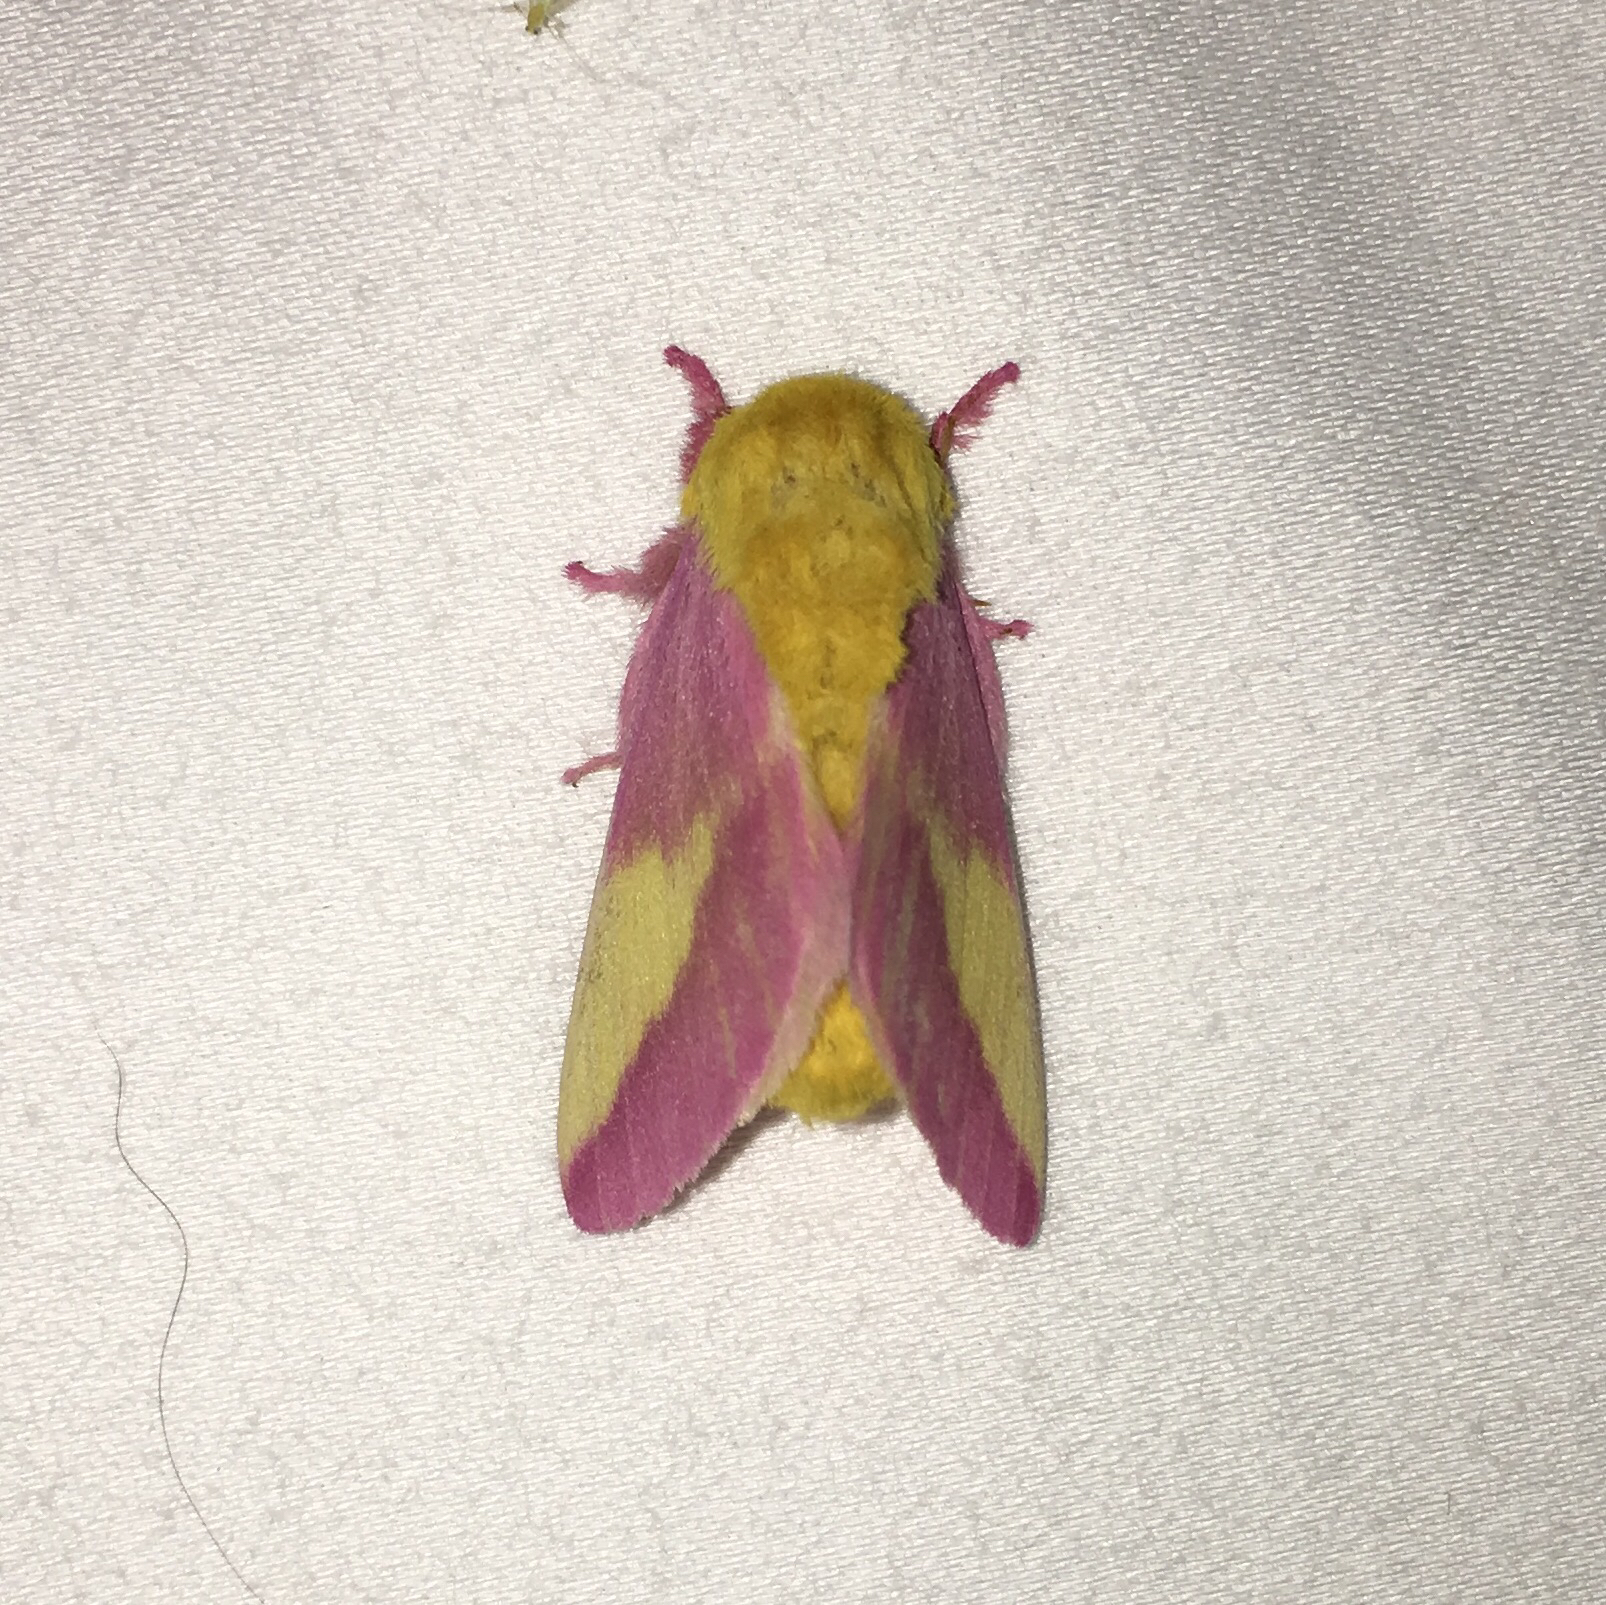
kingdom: Animalia
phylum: Arthropoda
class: Insecta
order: Lepidoptera
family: Saturniidae
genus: Dryocampa
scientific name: Dryocampa rubicunda
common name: Rosy maple moth
